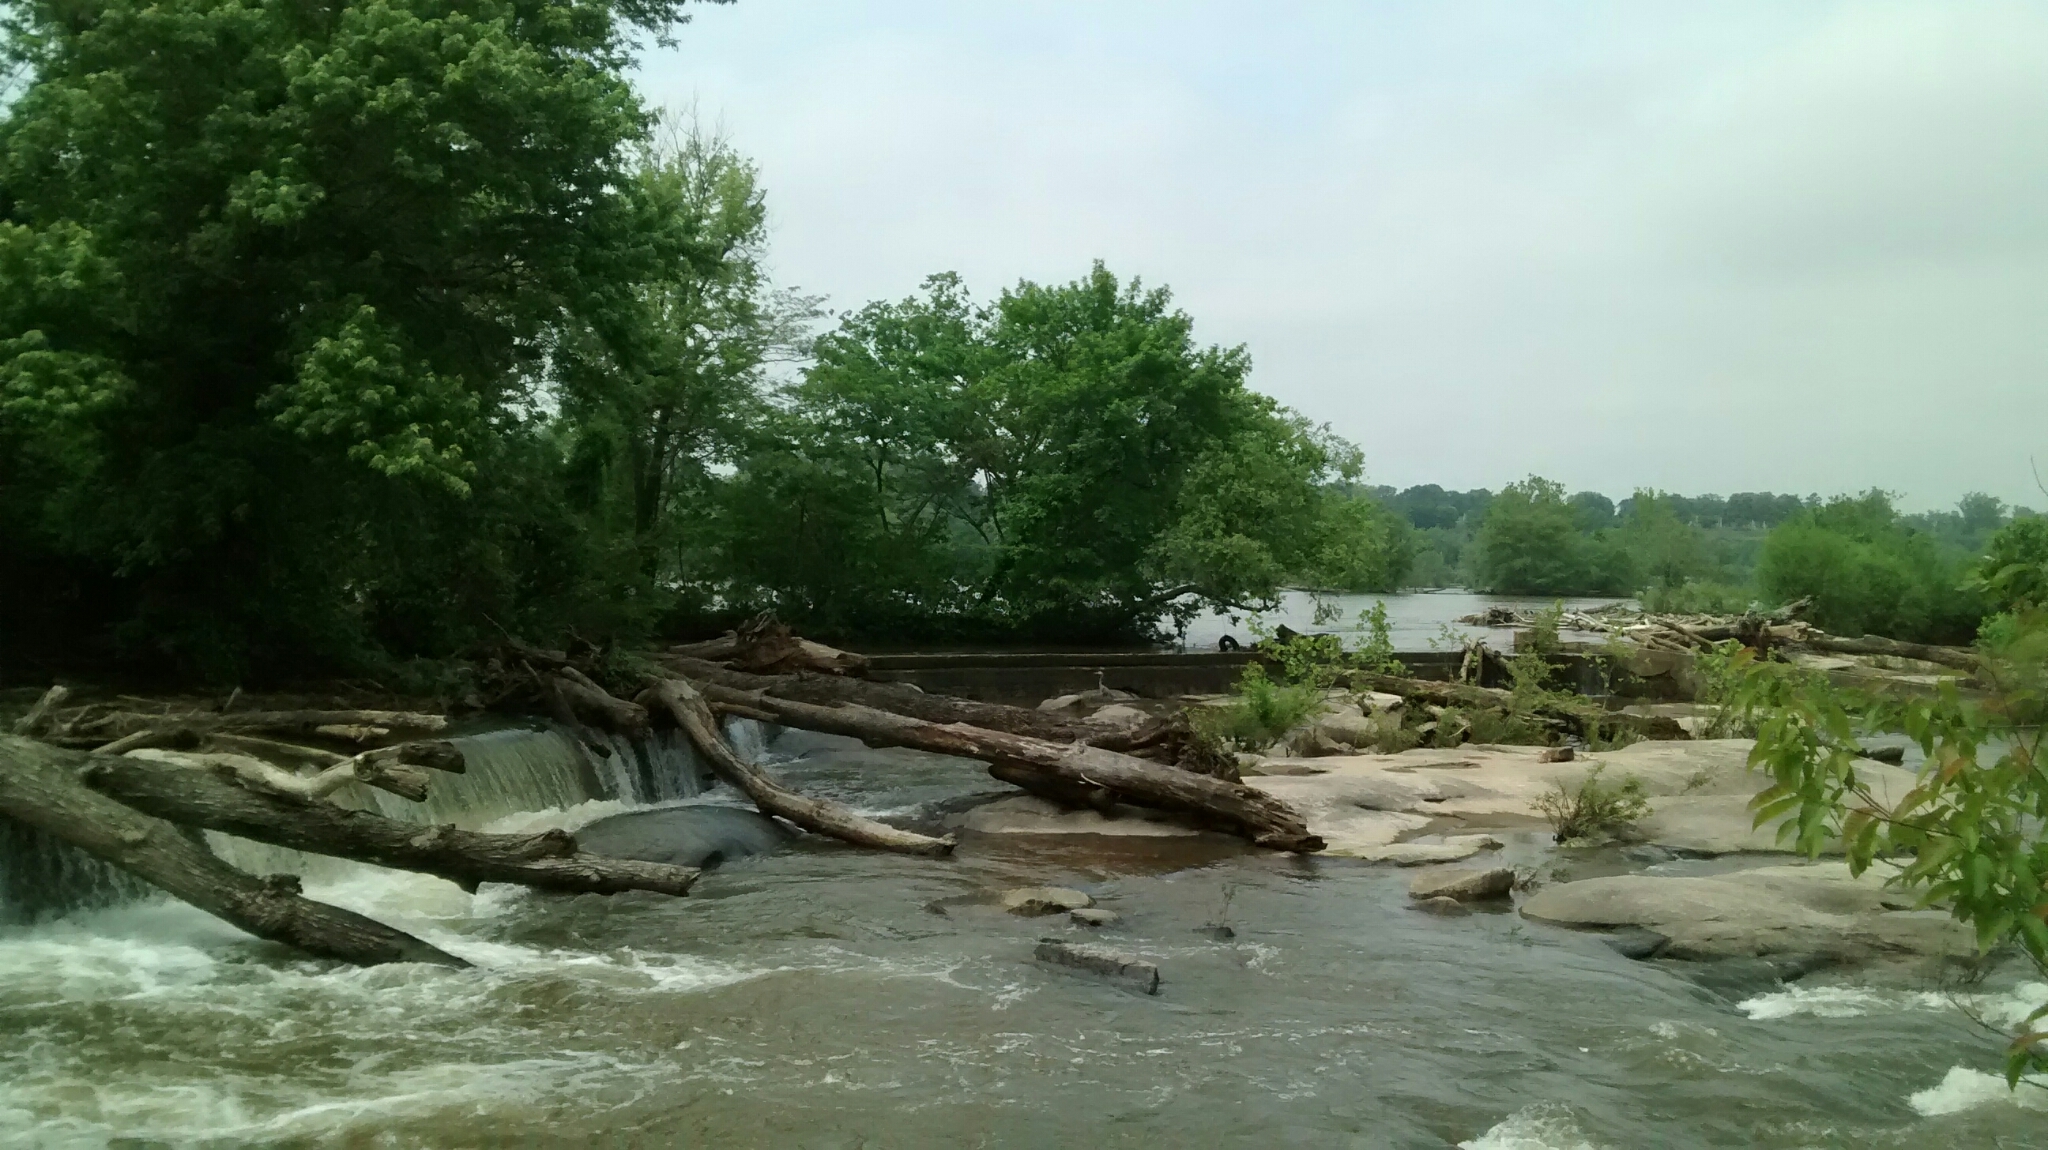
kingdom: Animalia
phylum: Chordata
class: Aves
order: Pelecaniformes
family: Ardeidae
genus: Ardea
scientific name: Ardea herodias
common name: Great blue heron
